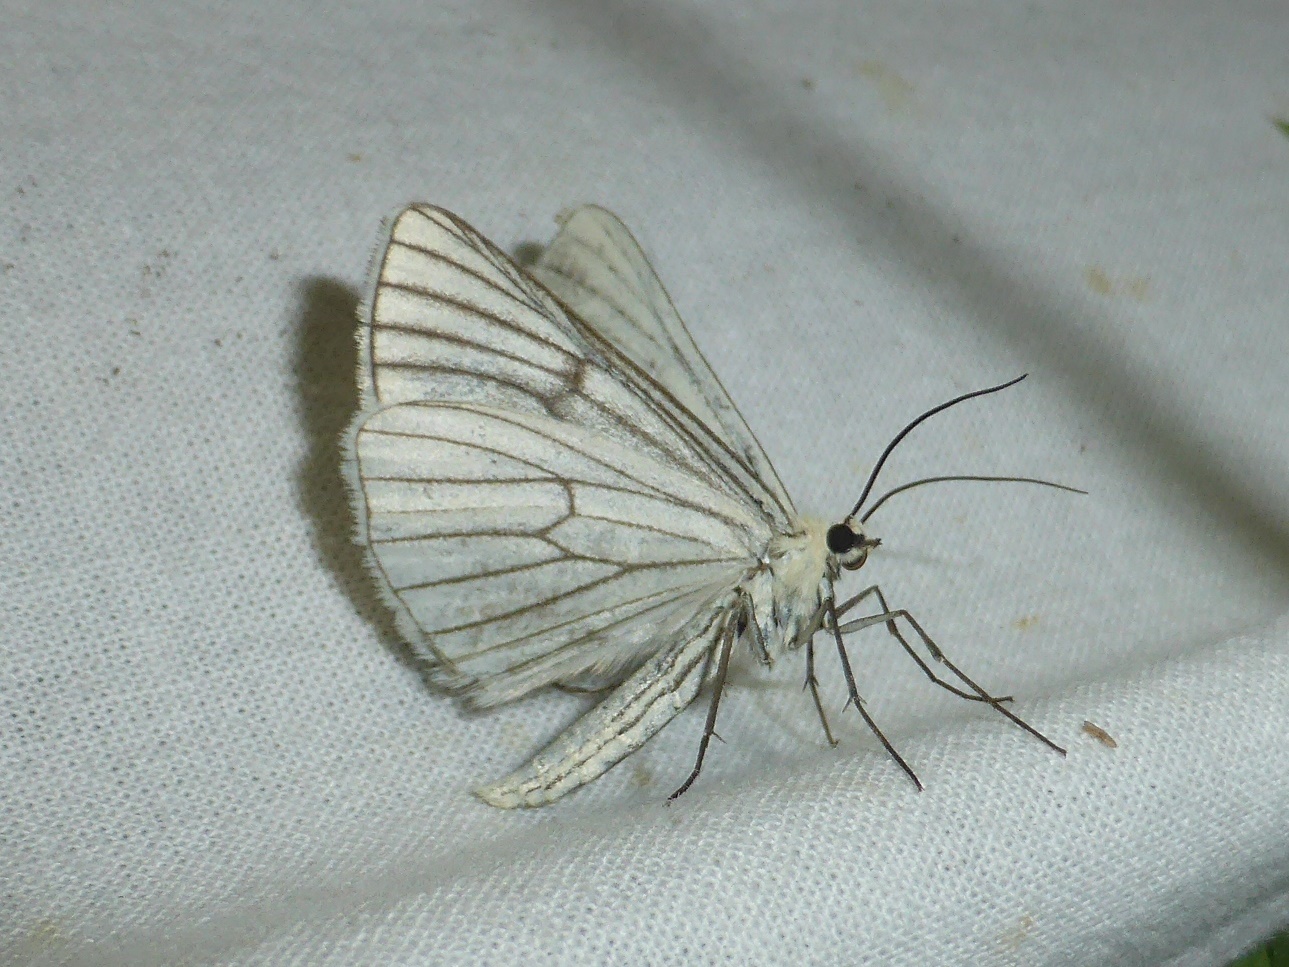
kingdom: Animalia
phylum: Arthropoda
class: Insecta
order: Lepidoptera
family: Geometridae
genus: Siona
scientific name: Siona lineata
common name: Black-veined moth
